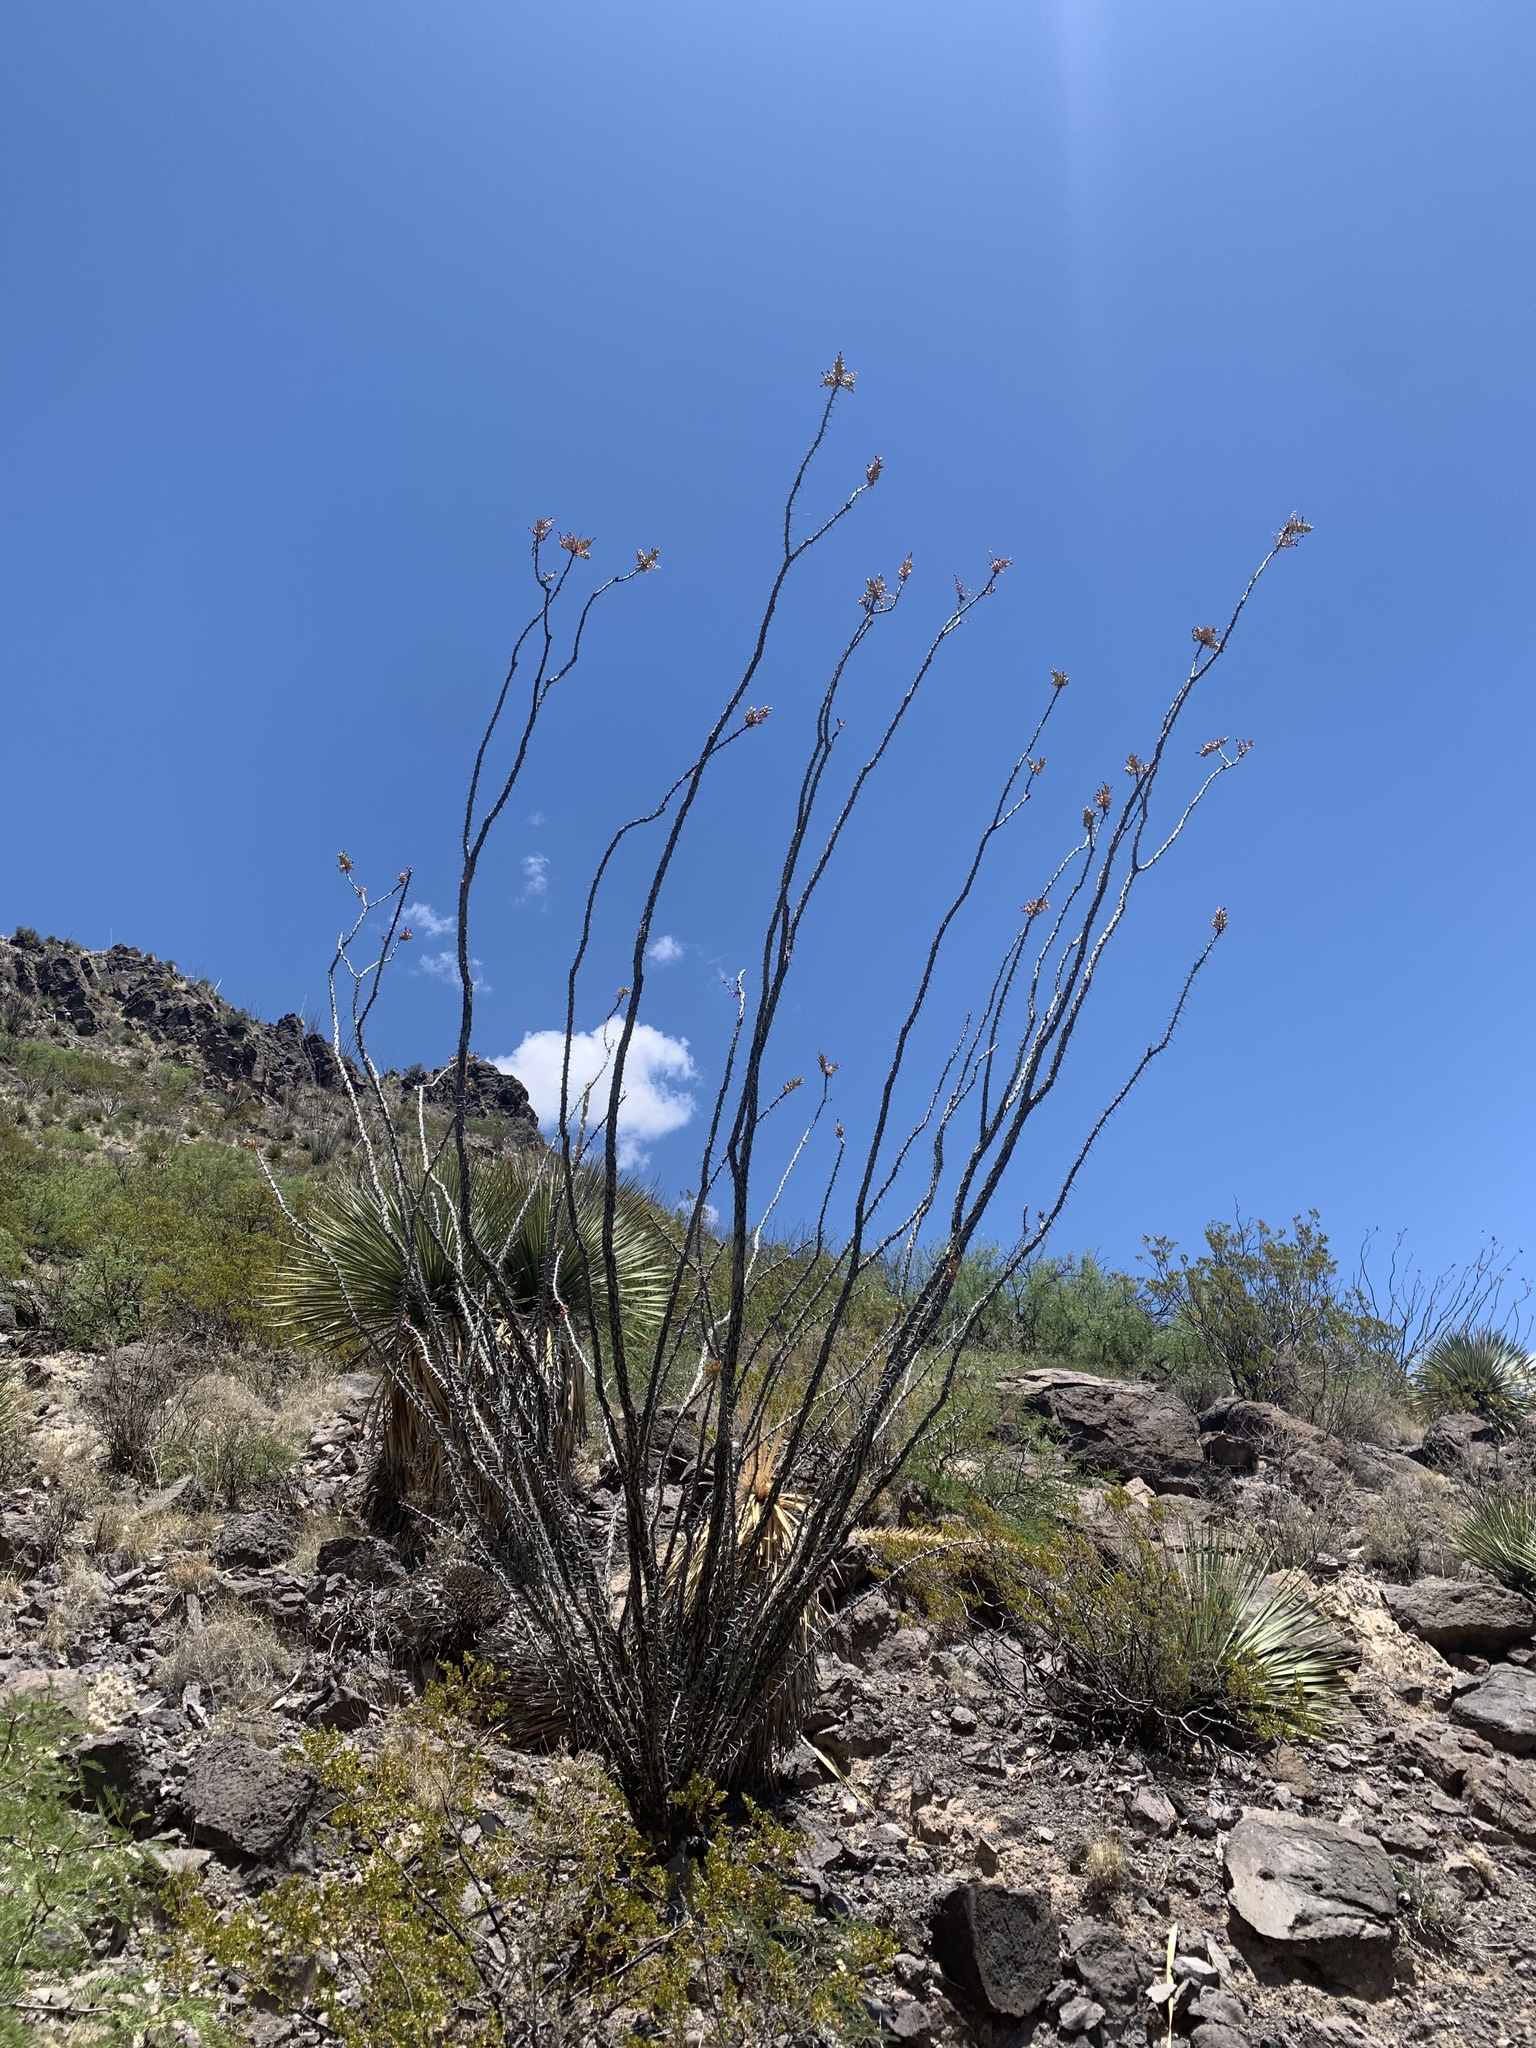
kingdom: Plantae
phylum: Tracheophyta
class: Magnoliopsida
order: Ericales
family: Fouquieriaceae
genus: Fouquieria
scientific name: Fouquieria splendens
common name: Vine-cactus
